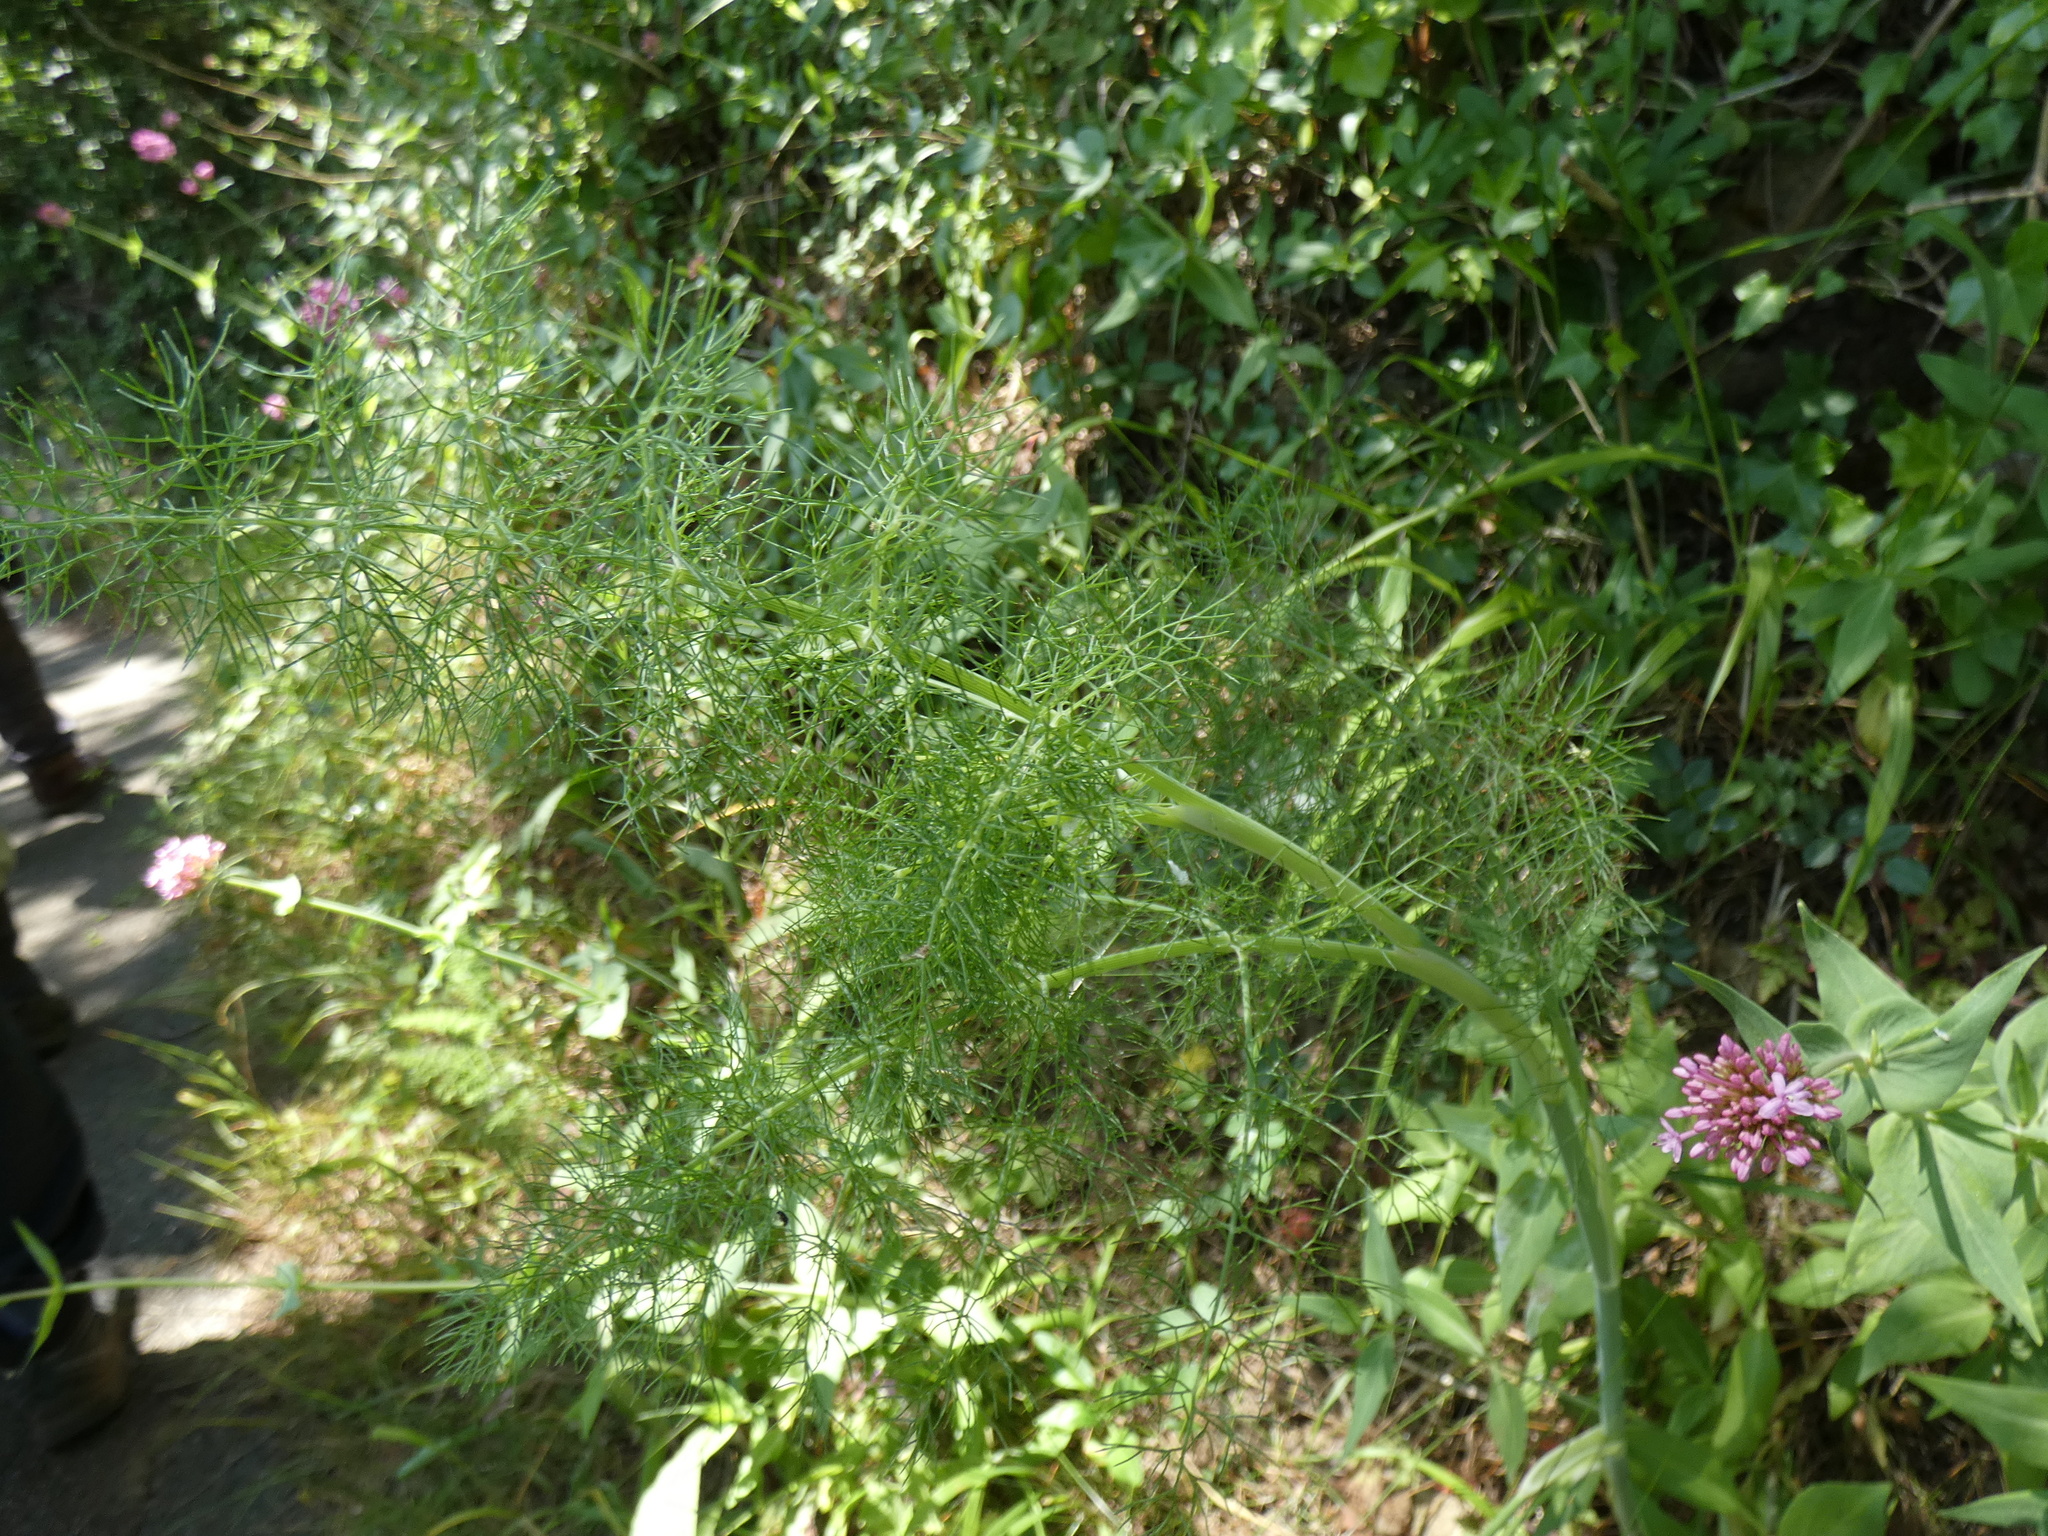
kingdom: Plantae
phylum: Tracheophyta
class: Magnoliopsida
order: Apiales
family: Apiaceae
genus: Foeniculum
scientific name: Foeniculum vulgare
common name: Fennel
